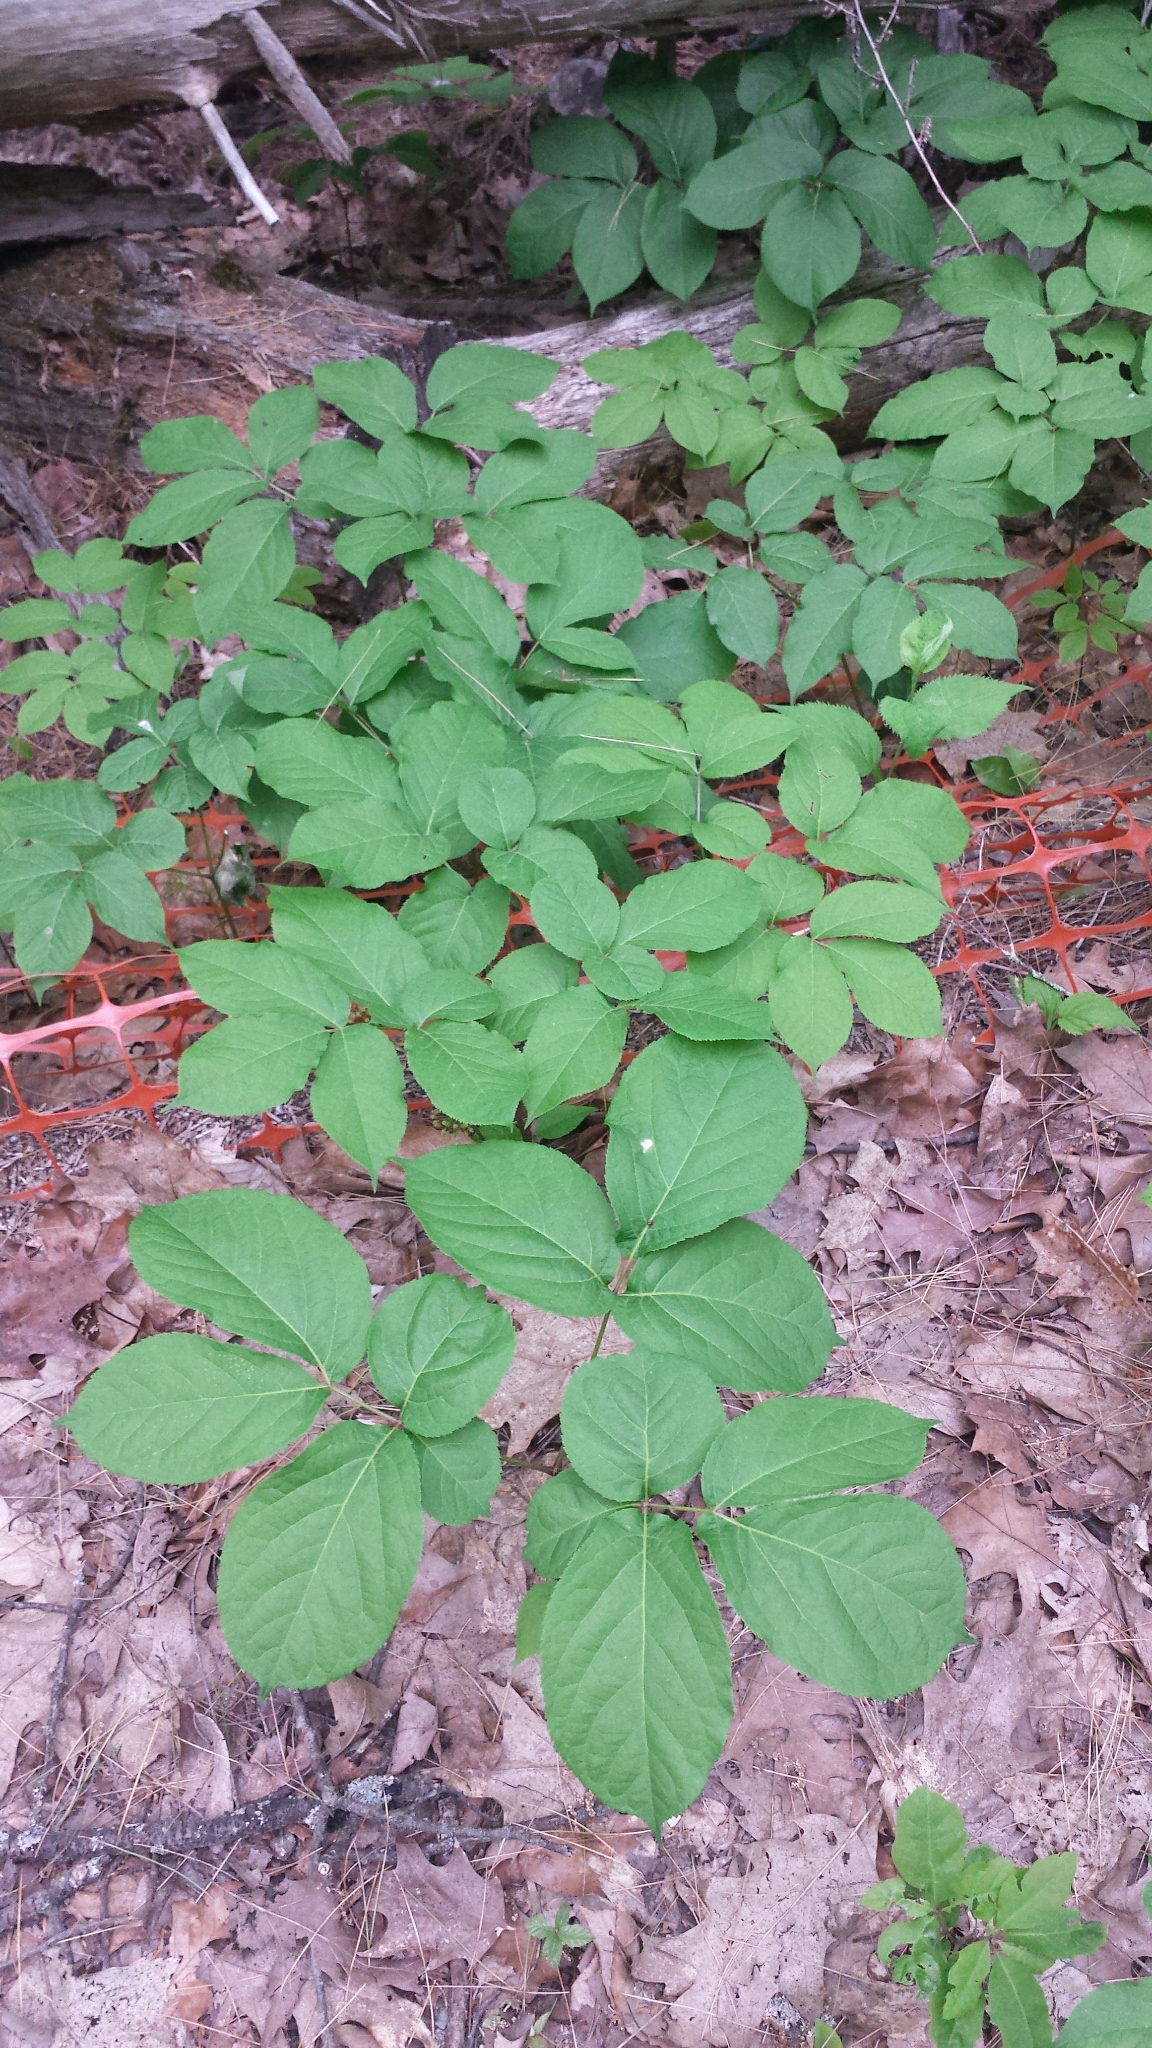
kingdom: Plantae
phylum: Tracheophyta
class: Magnoliopsida
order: Apiales
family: Araliaceae
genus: Aralia
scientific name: Aralia nudicaulis
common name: Wild sarsaparilla
